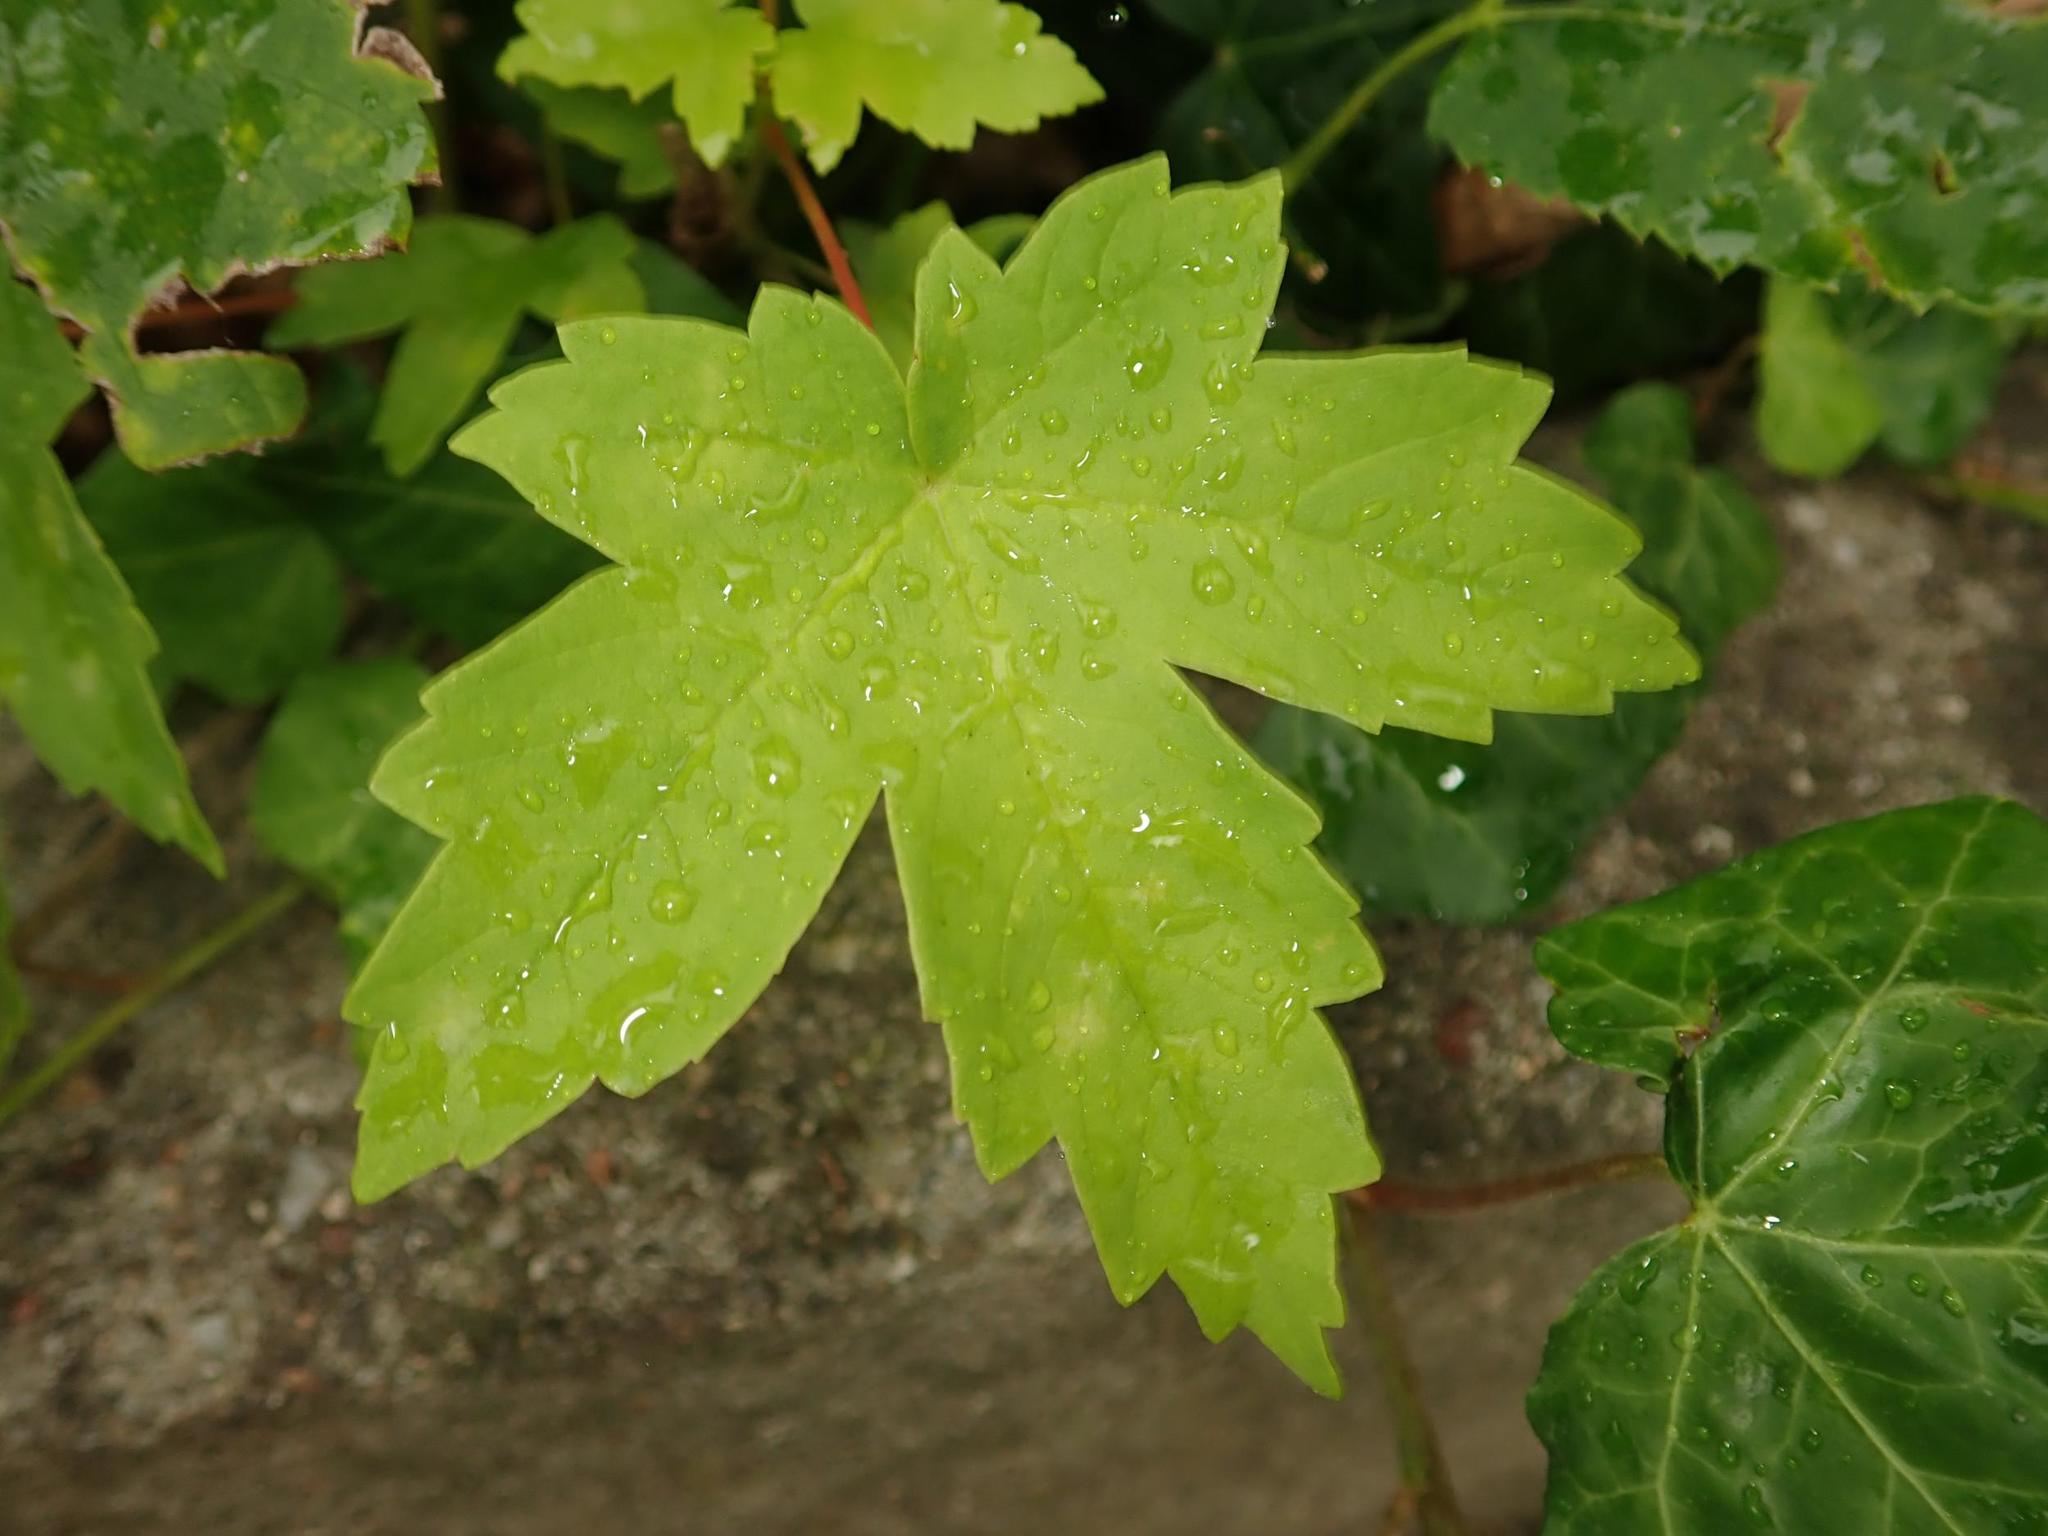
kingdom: Plantae
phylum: Tracheophyta
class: Magnoliopsida
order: Sapindales
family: Sapindaceae
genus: Acer
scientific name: Acer pseudoplatanus
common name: Sycamore
